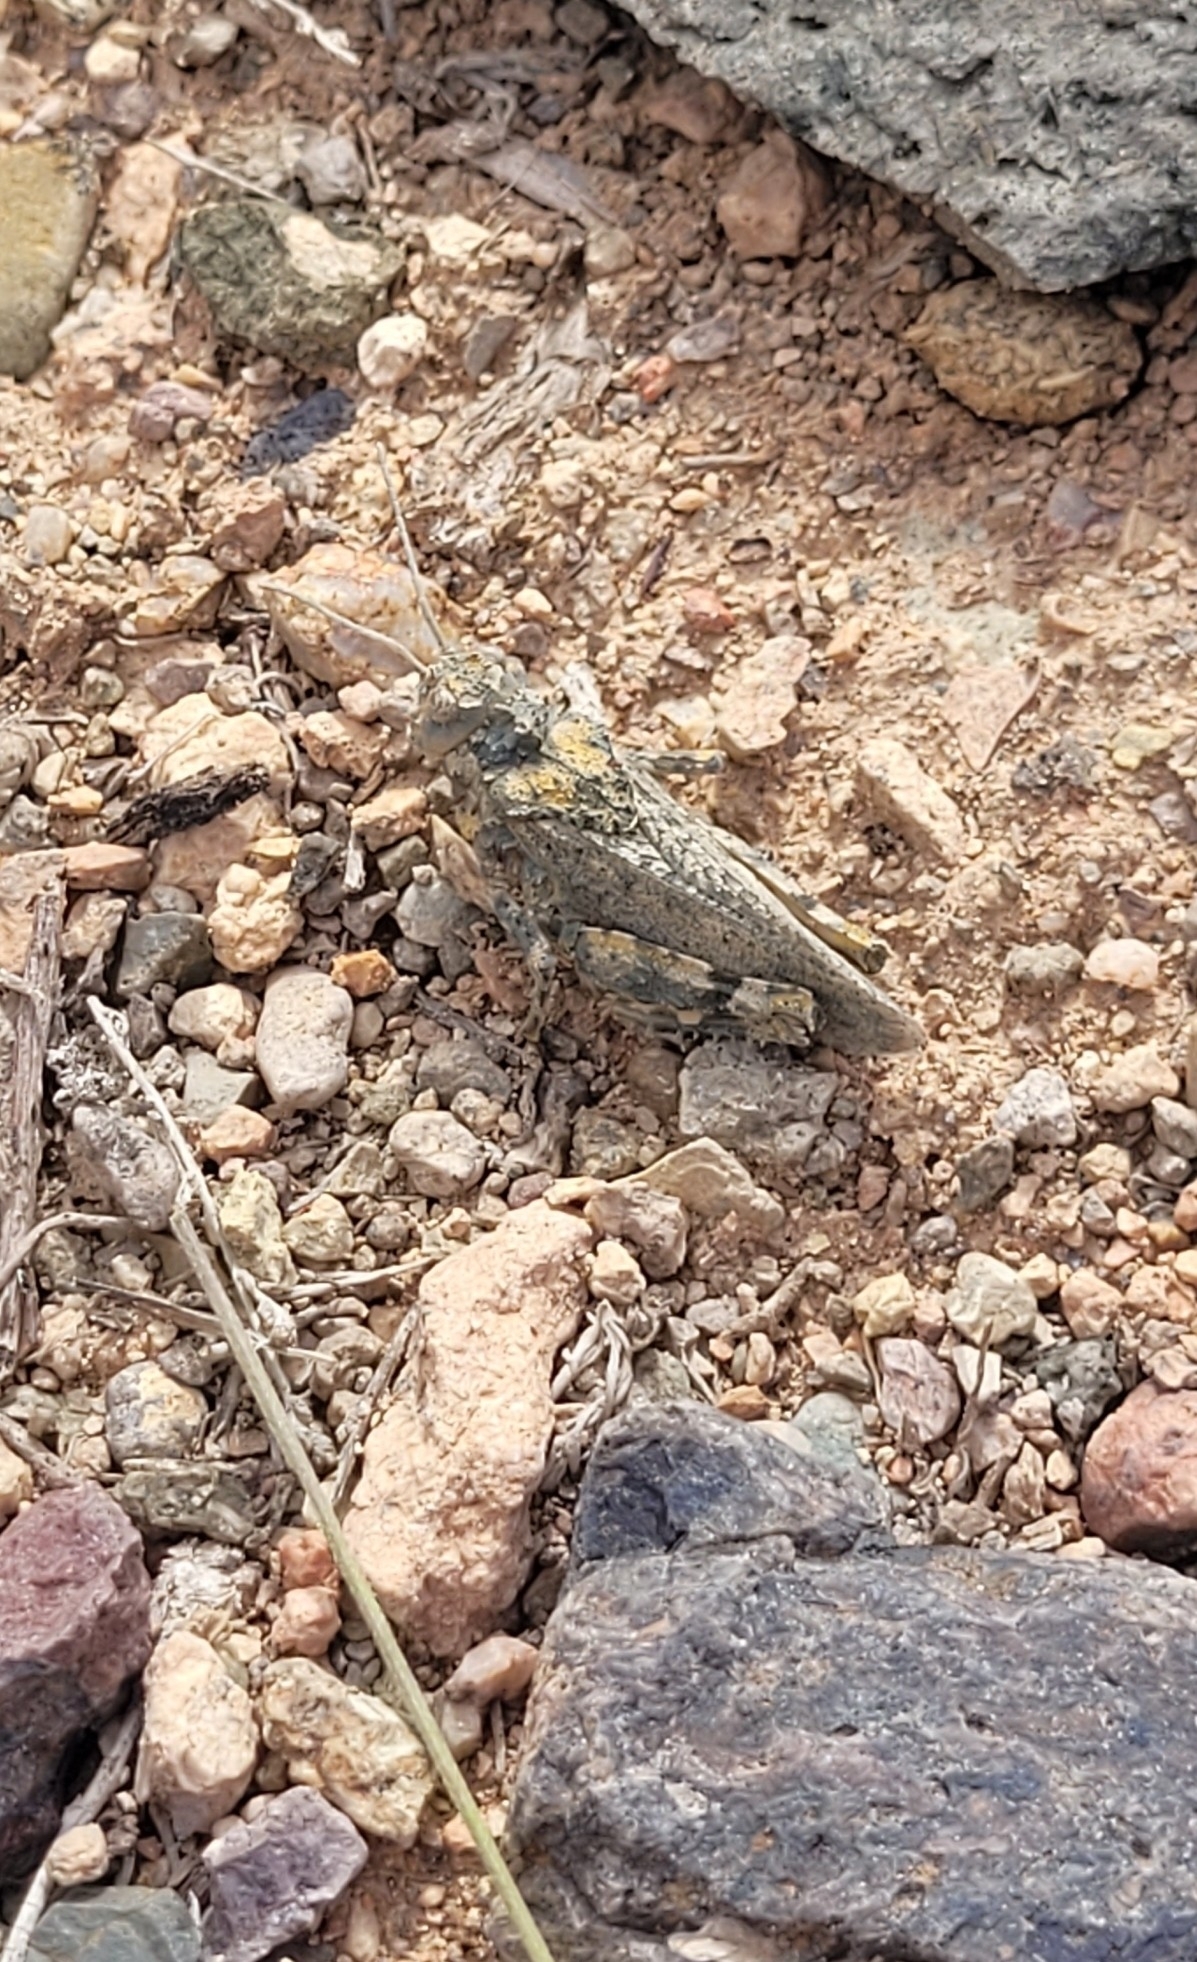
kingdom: Animalia
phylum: Arthropoda
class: Insecta
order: Orthoptera
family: Pamphagidae
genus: Asiotmethis
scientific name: Asiotmethis heptapotamicus
